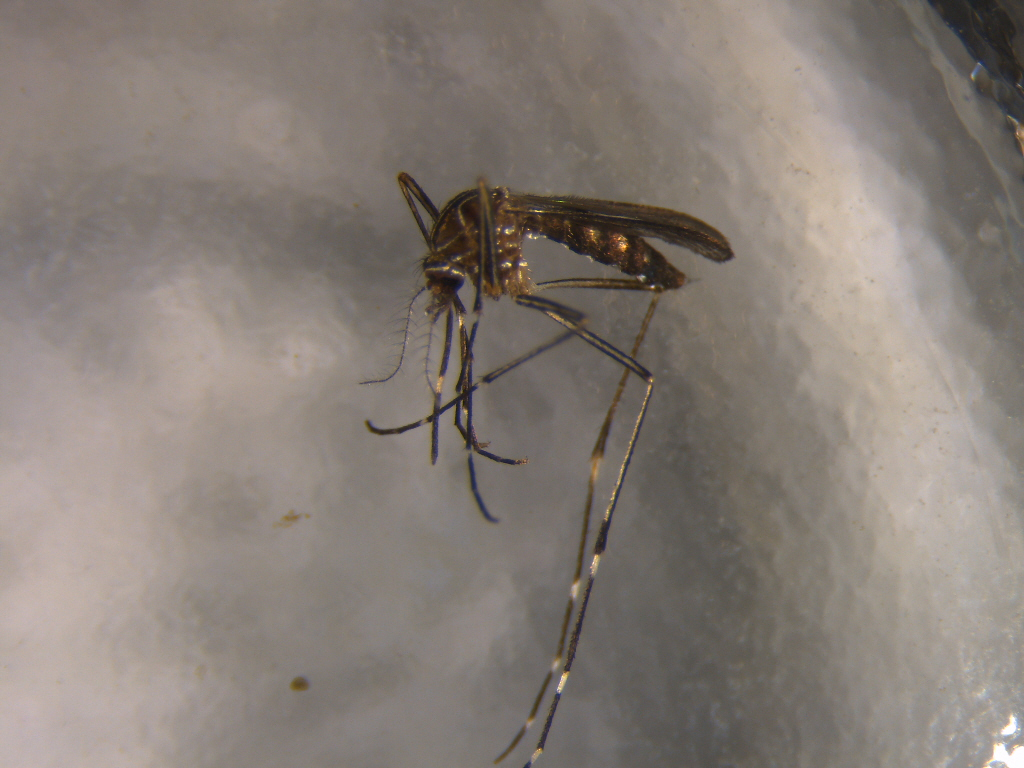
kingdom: Animalia
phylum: Arthropoda
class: Insecta
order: Diptera
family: Culicidae
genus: Aedes
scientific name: Aedes notoscriptus
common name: Australian backyard mosquito
